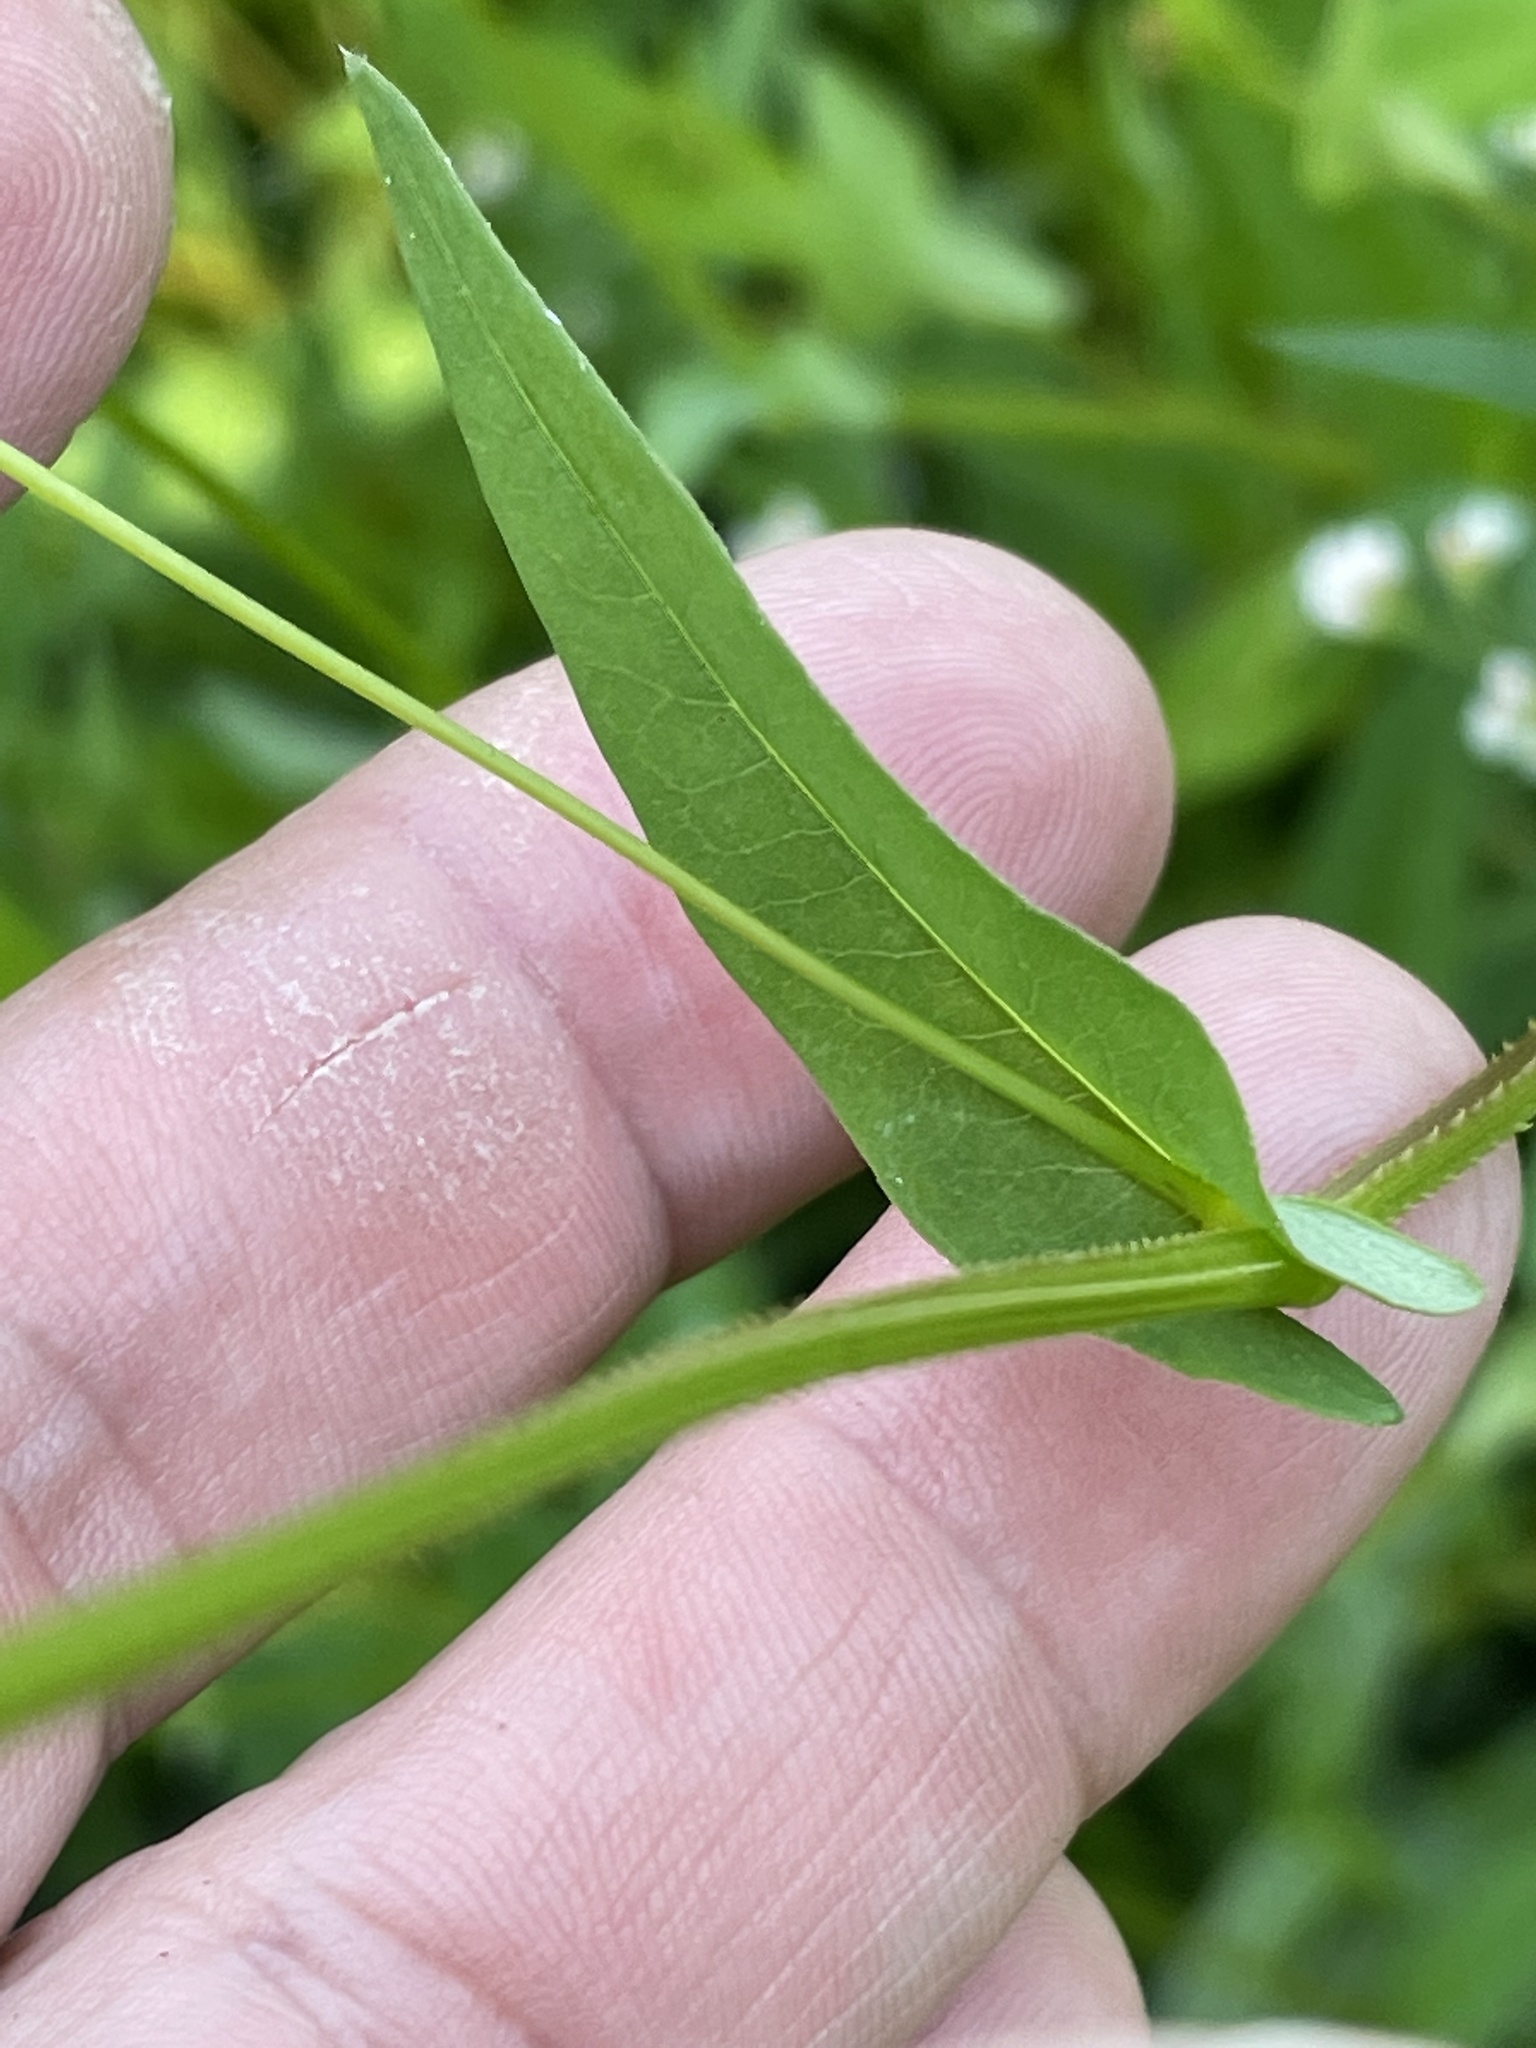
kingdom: Plantae
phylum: Tracheophyta
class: Magnoliopsida
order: Caryophyllales
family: Polygonaceae
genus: Persicaria
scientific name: Persicaria sagittata
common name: American tearthumb
